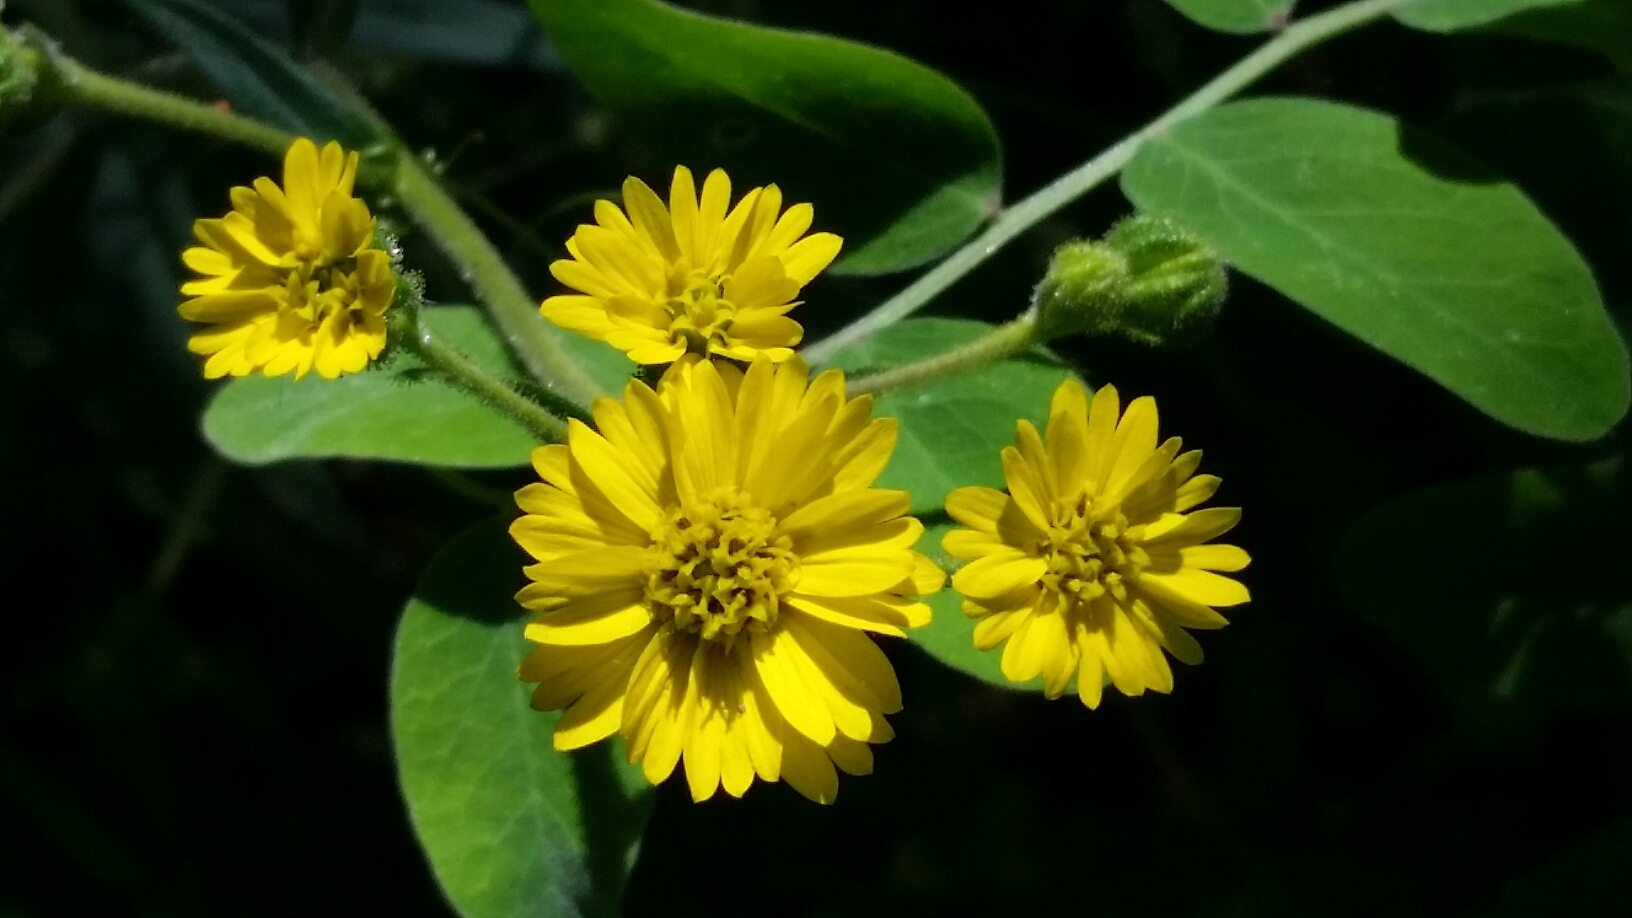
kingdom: Plantae
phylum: Tracheophyta
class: Magnoliopsida
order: Asterales
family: Asteraceae
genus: Anisocarpus
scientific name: Anisocarpus madioides
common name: Woodland madia
